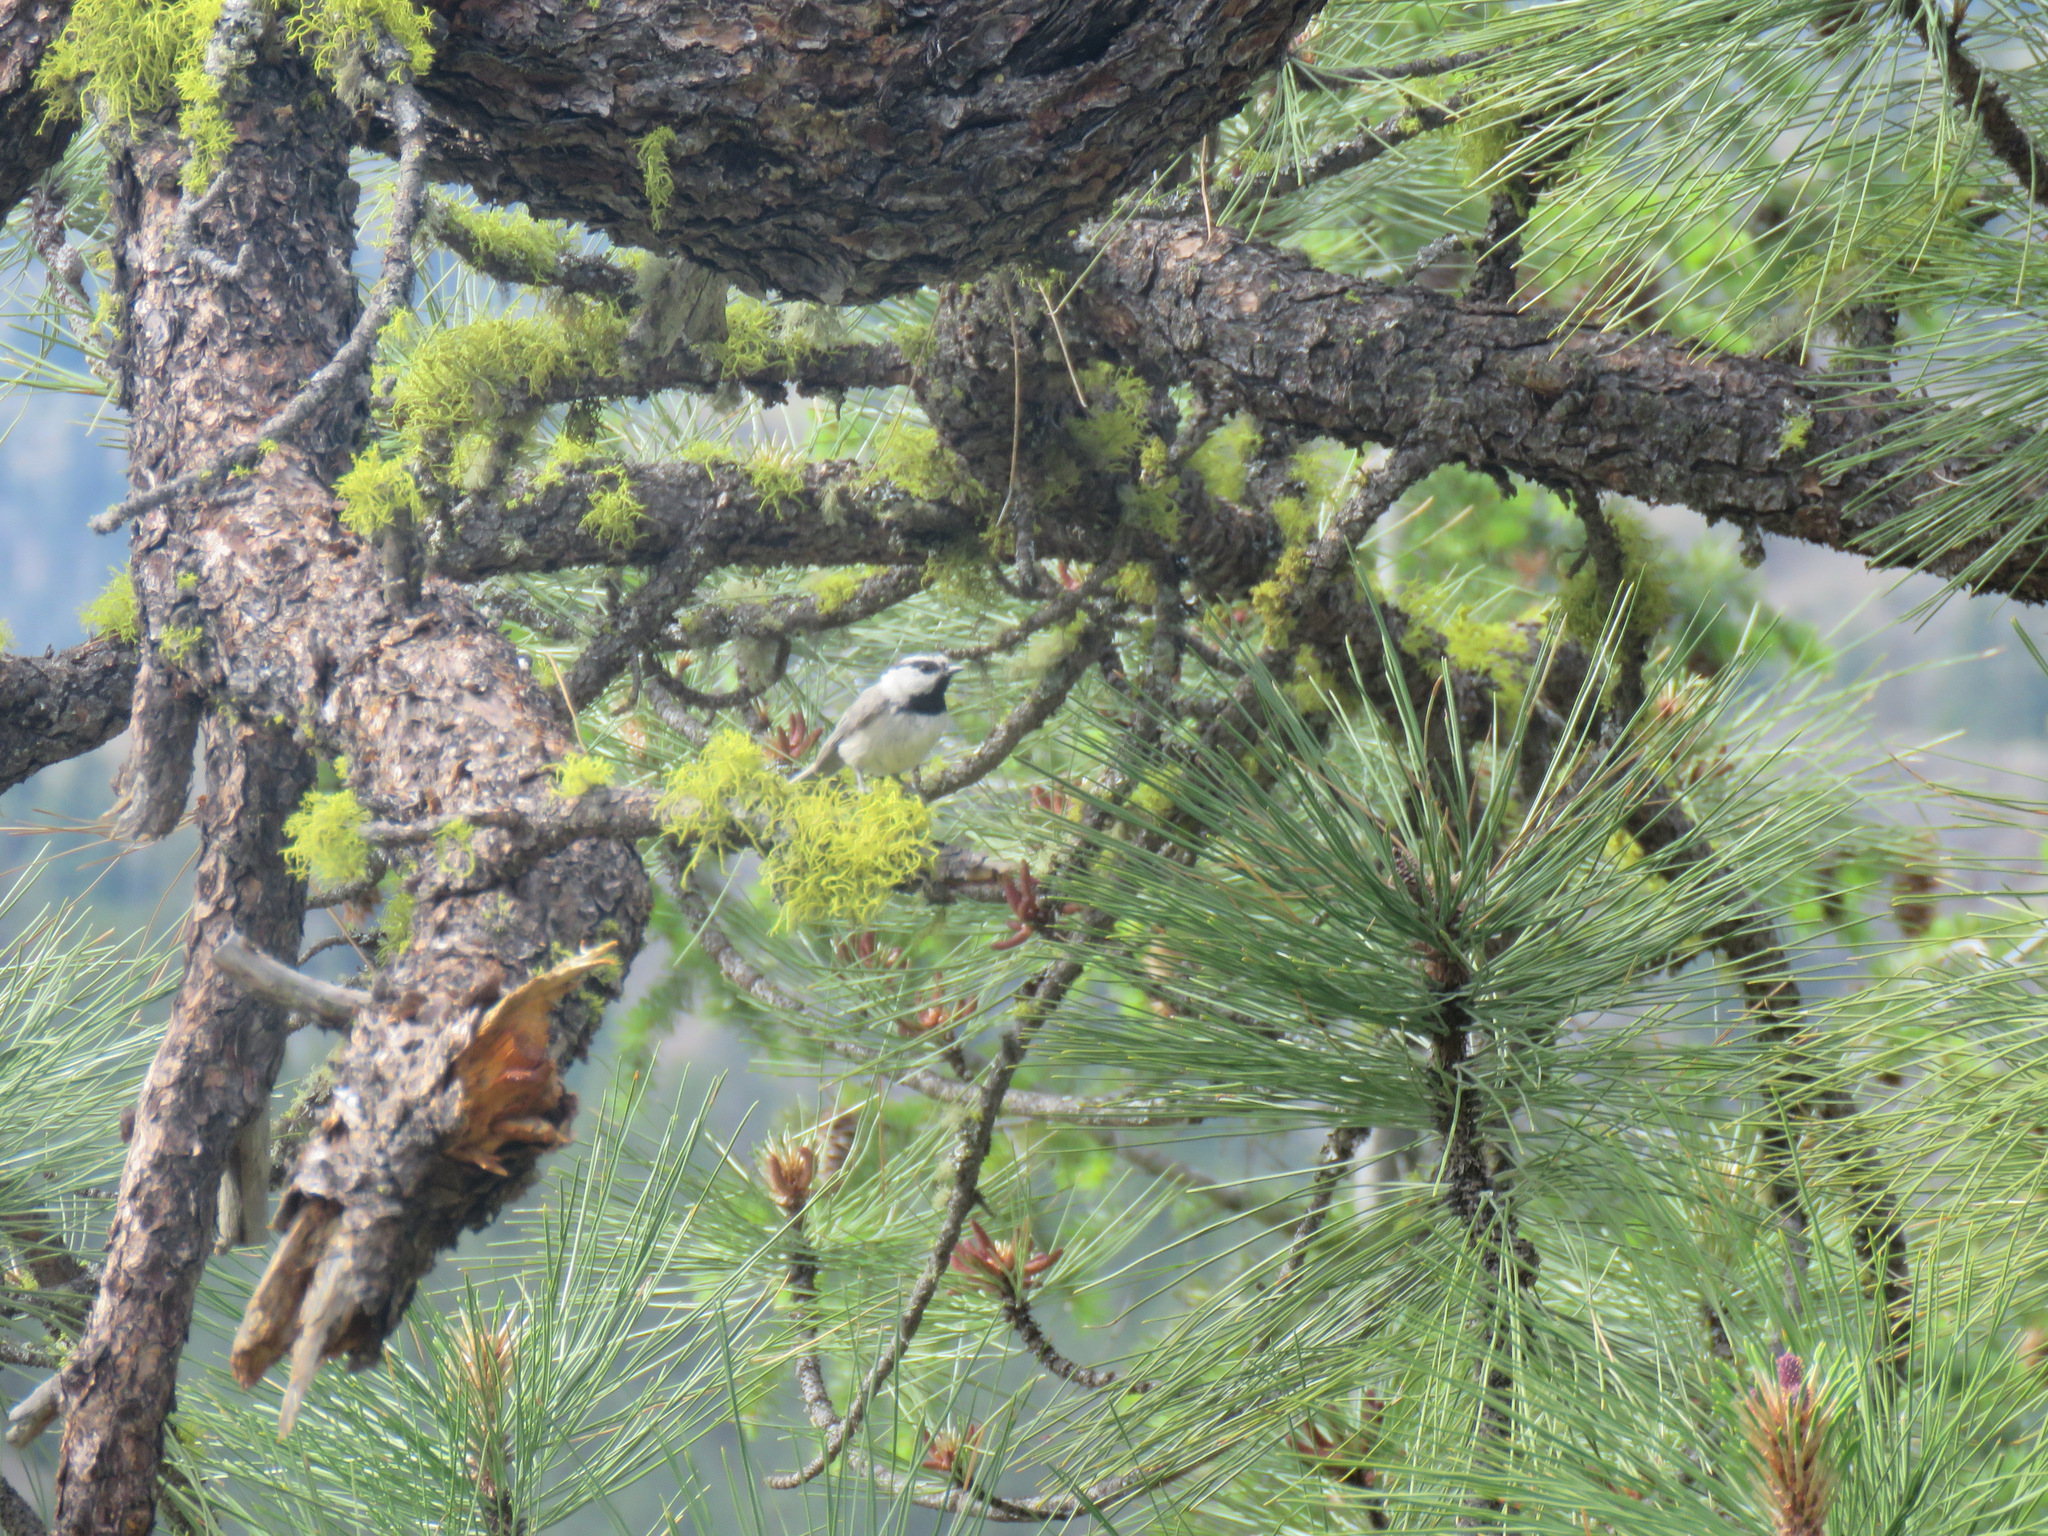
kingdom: Animalia
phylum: Chordata
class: Aves
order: Passeriformes
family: Paridae
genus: Poecile
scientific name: Poecile gambeli
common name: Mountain chickadee
